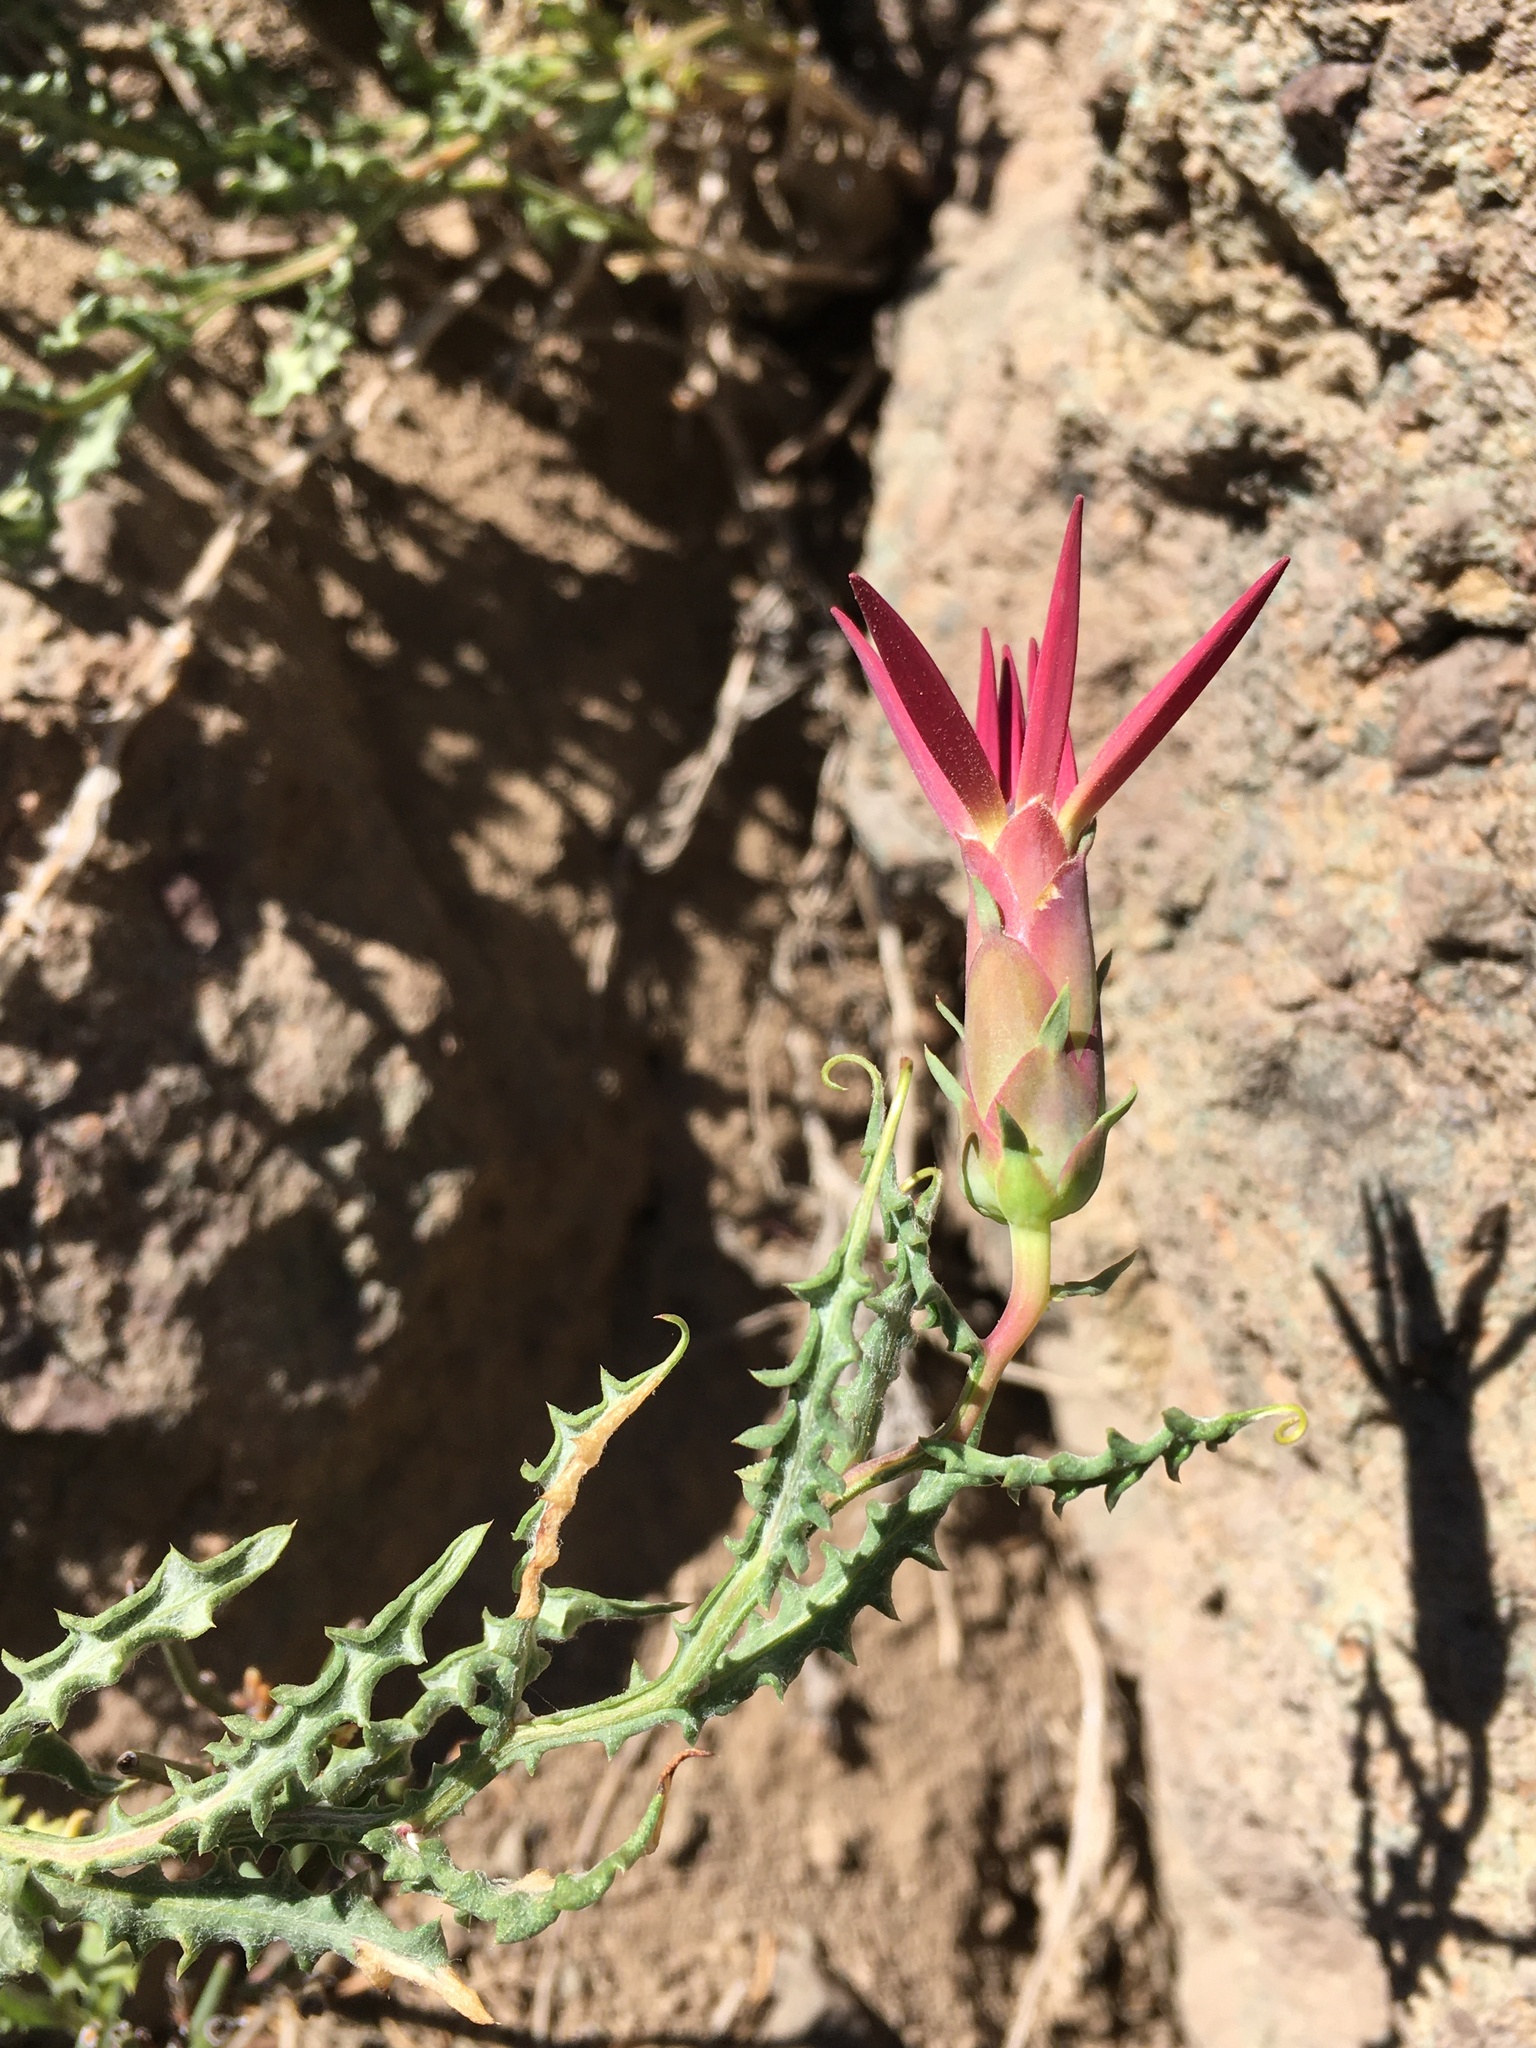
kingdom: Plantae
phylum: Tracheophyta
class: Magnoliopsida
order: Asterales
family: Asteraceae
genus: Mutisia
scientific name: Mutisia sinuata
